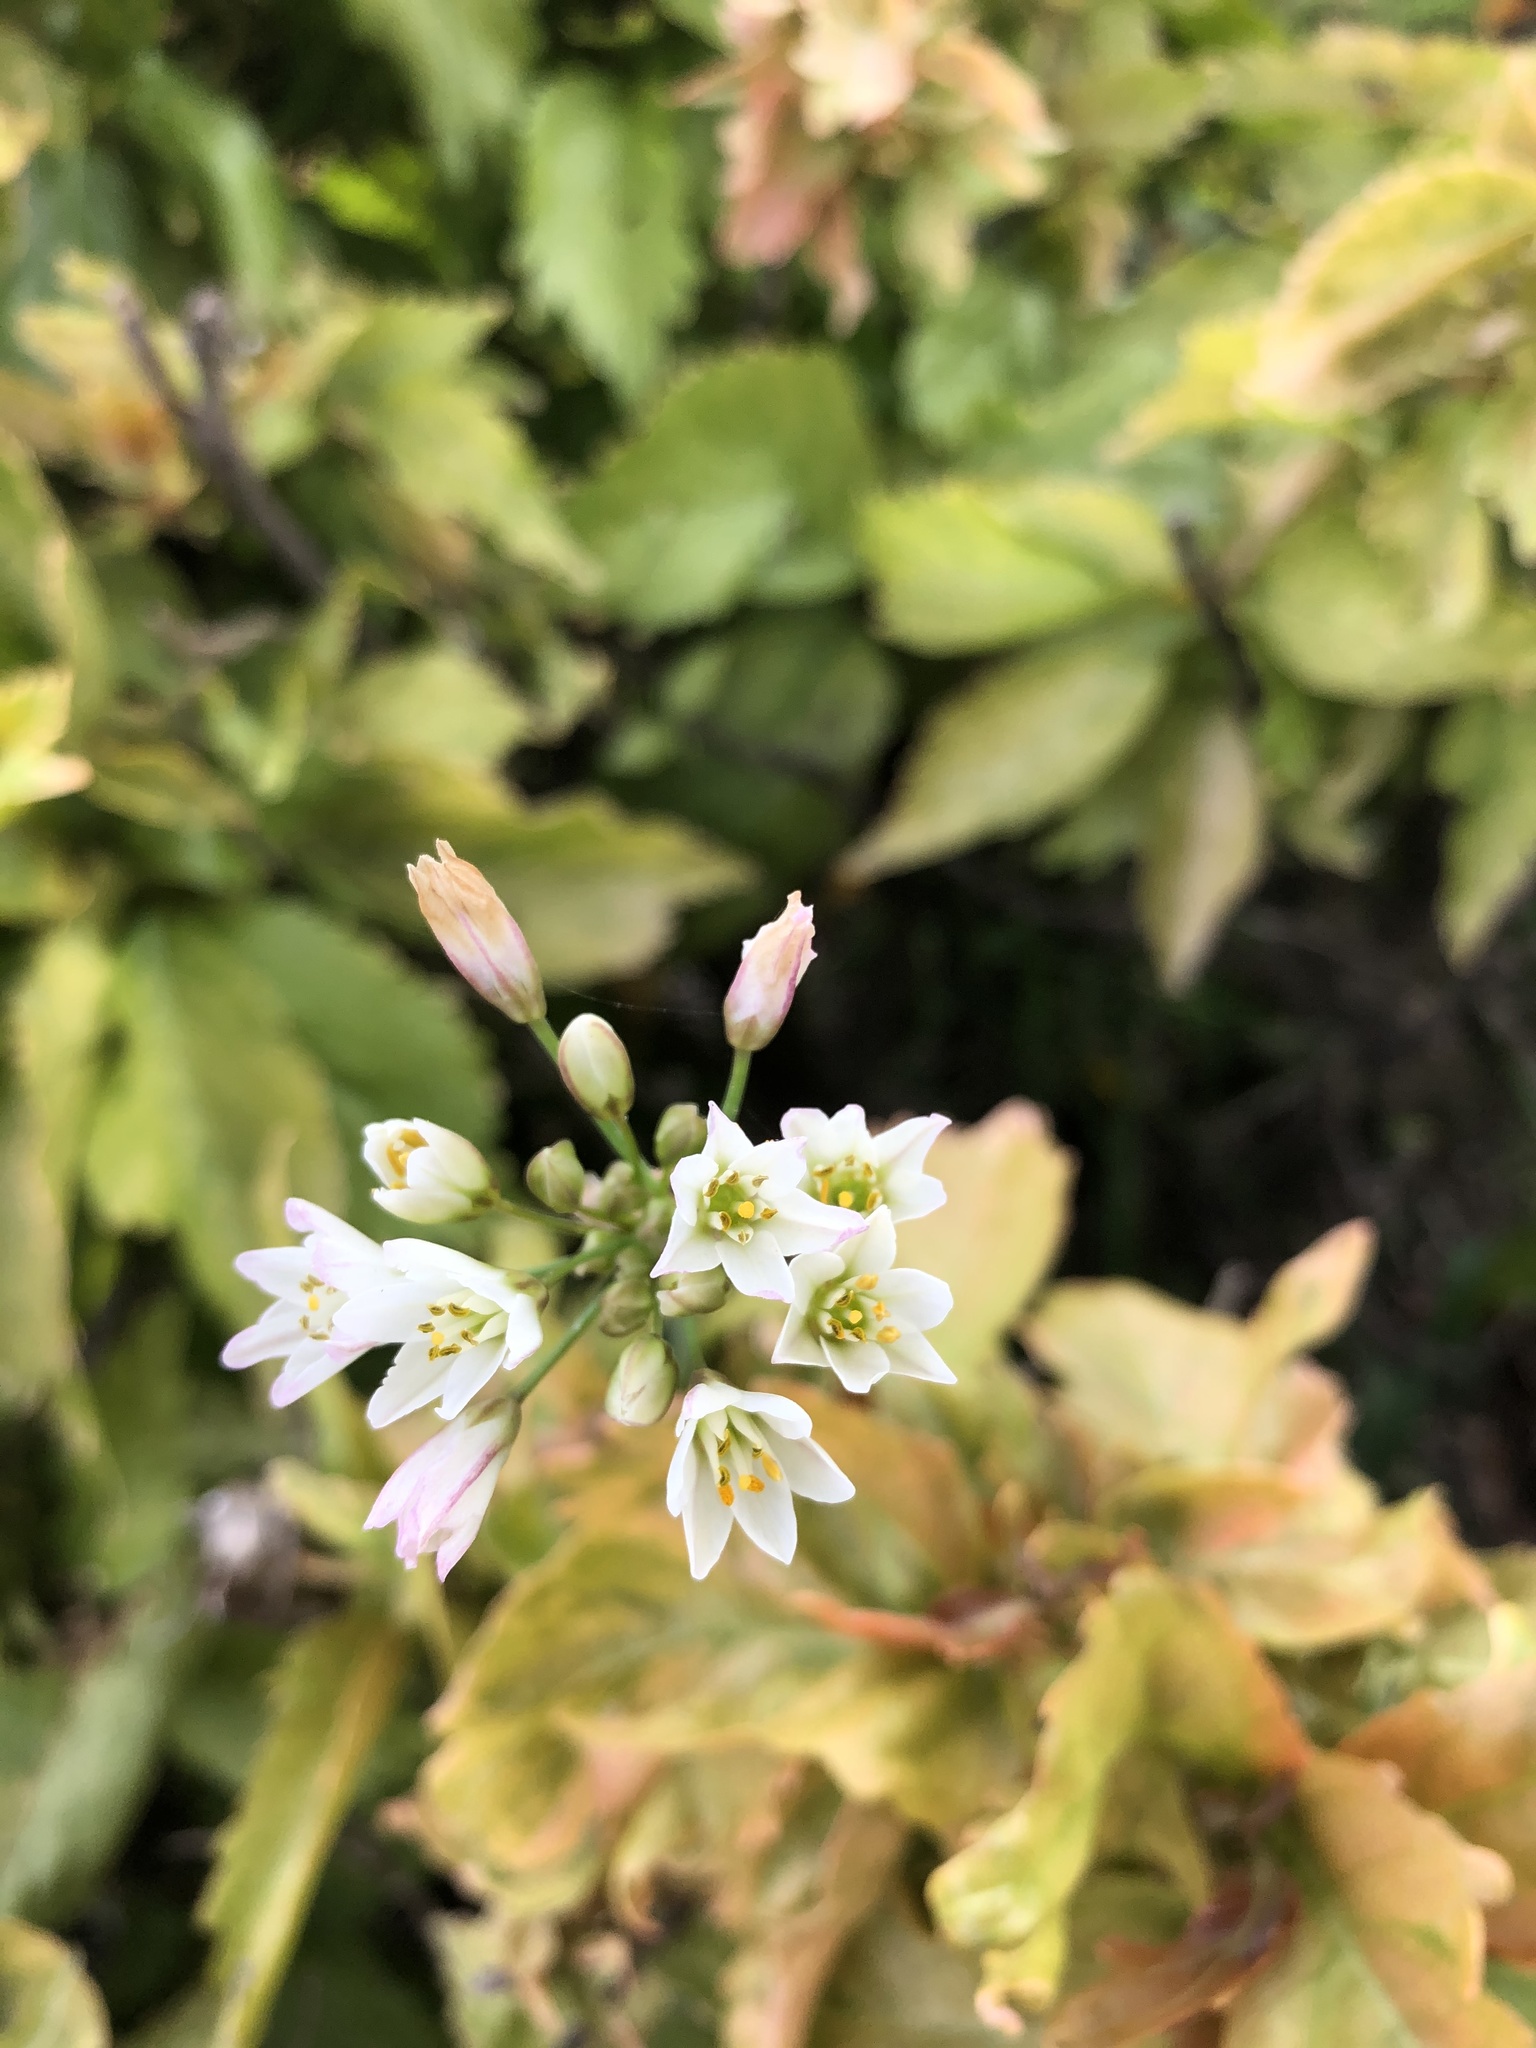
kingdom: Plantae
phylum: Tracheophyta
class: Liliopsida
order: Asparagales
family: Amaryllidaceae
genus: Nothoscordum
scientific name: Nothoscordum gracile
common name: Slender false garlic
